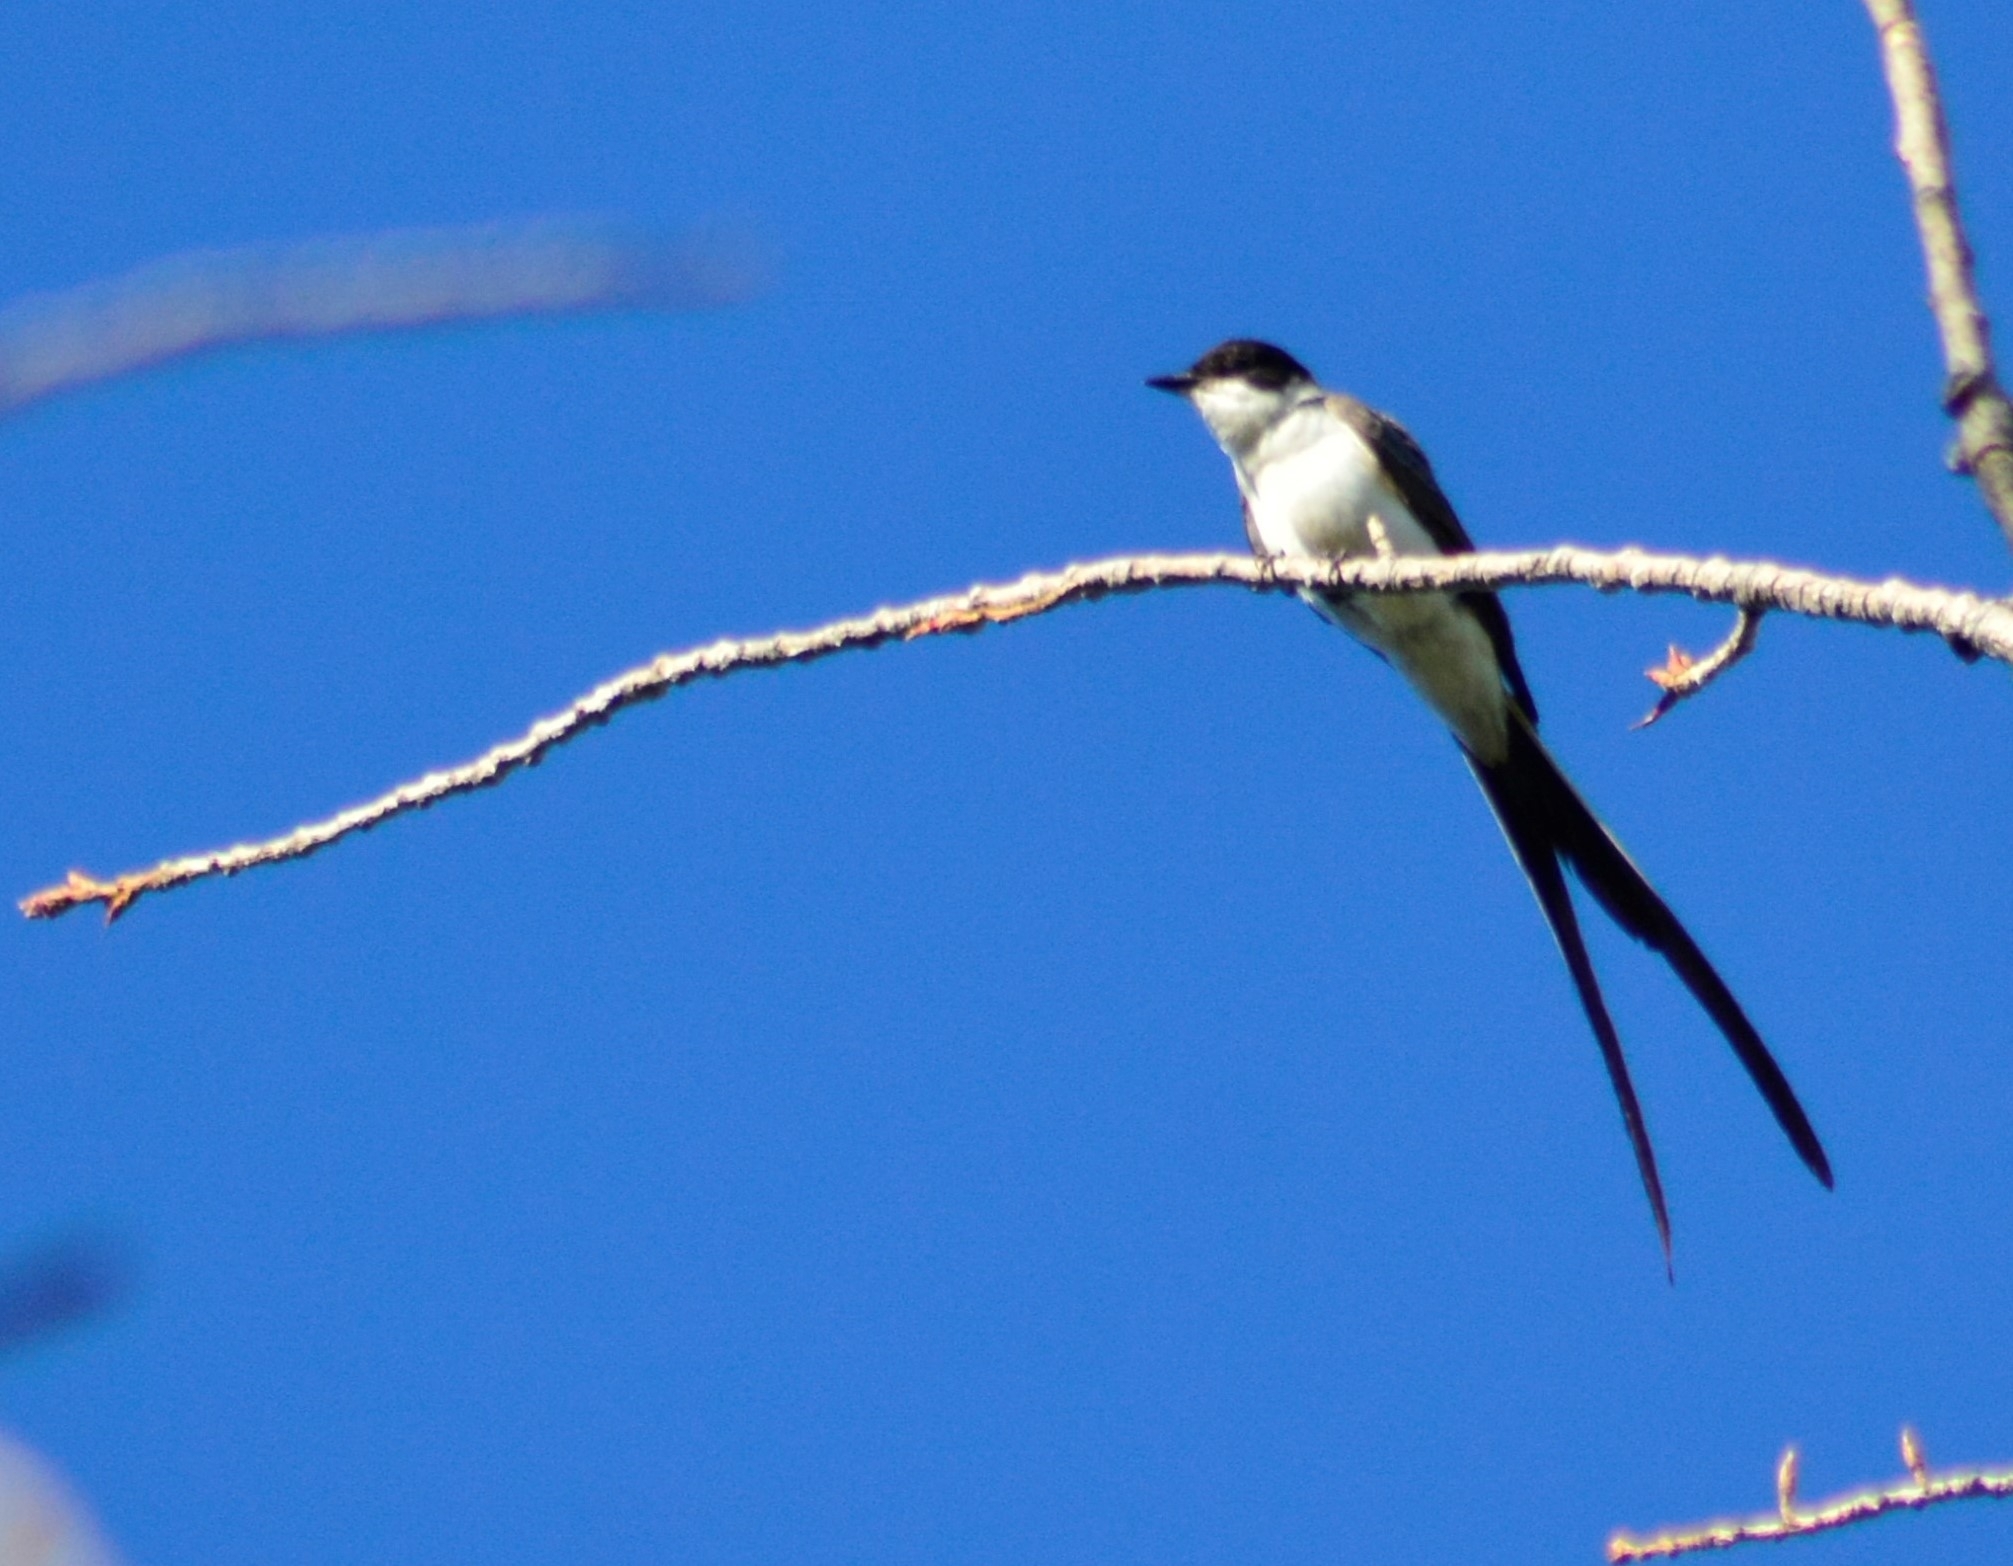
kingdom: Animalia
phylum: Chordata
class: Aves
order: Passeriformes
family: Tyrannidae
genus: Tyrannus
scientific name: Tyrannus savana
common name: Fork-tailed flycatcher
